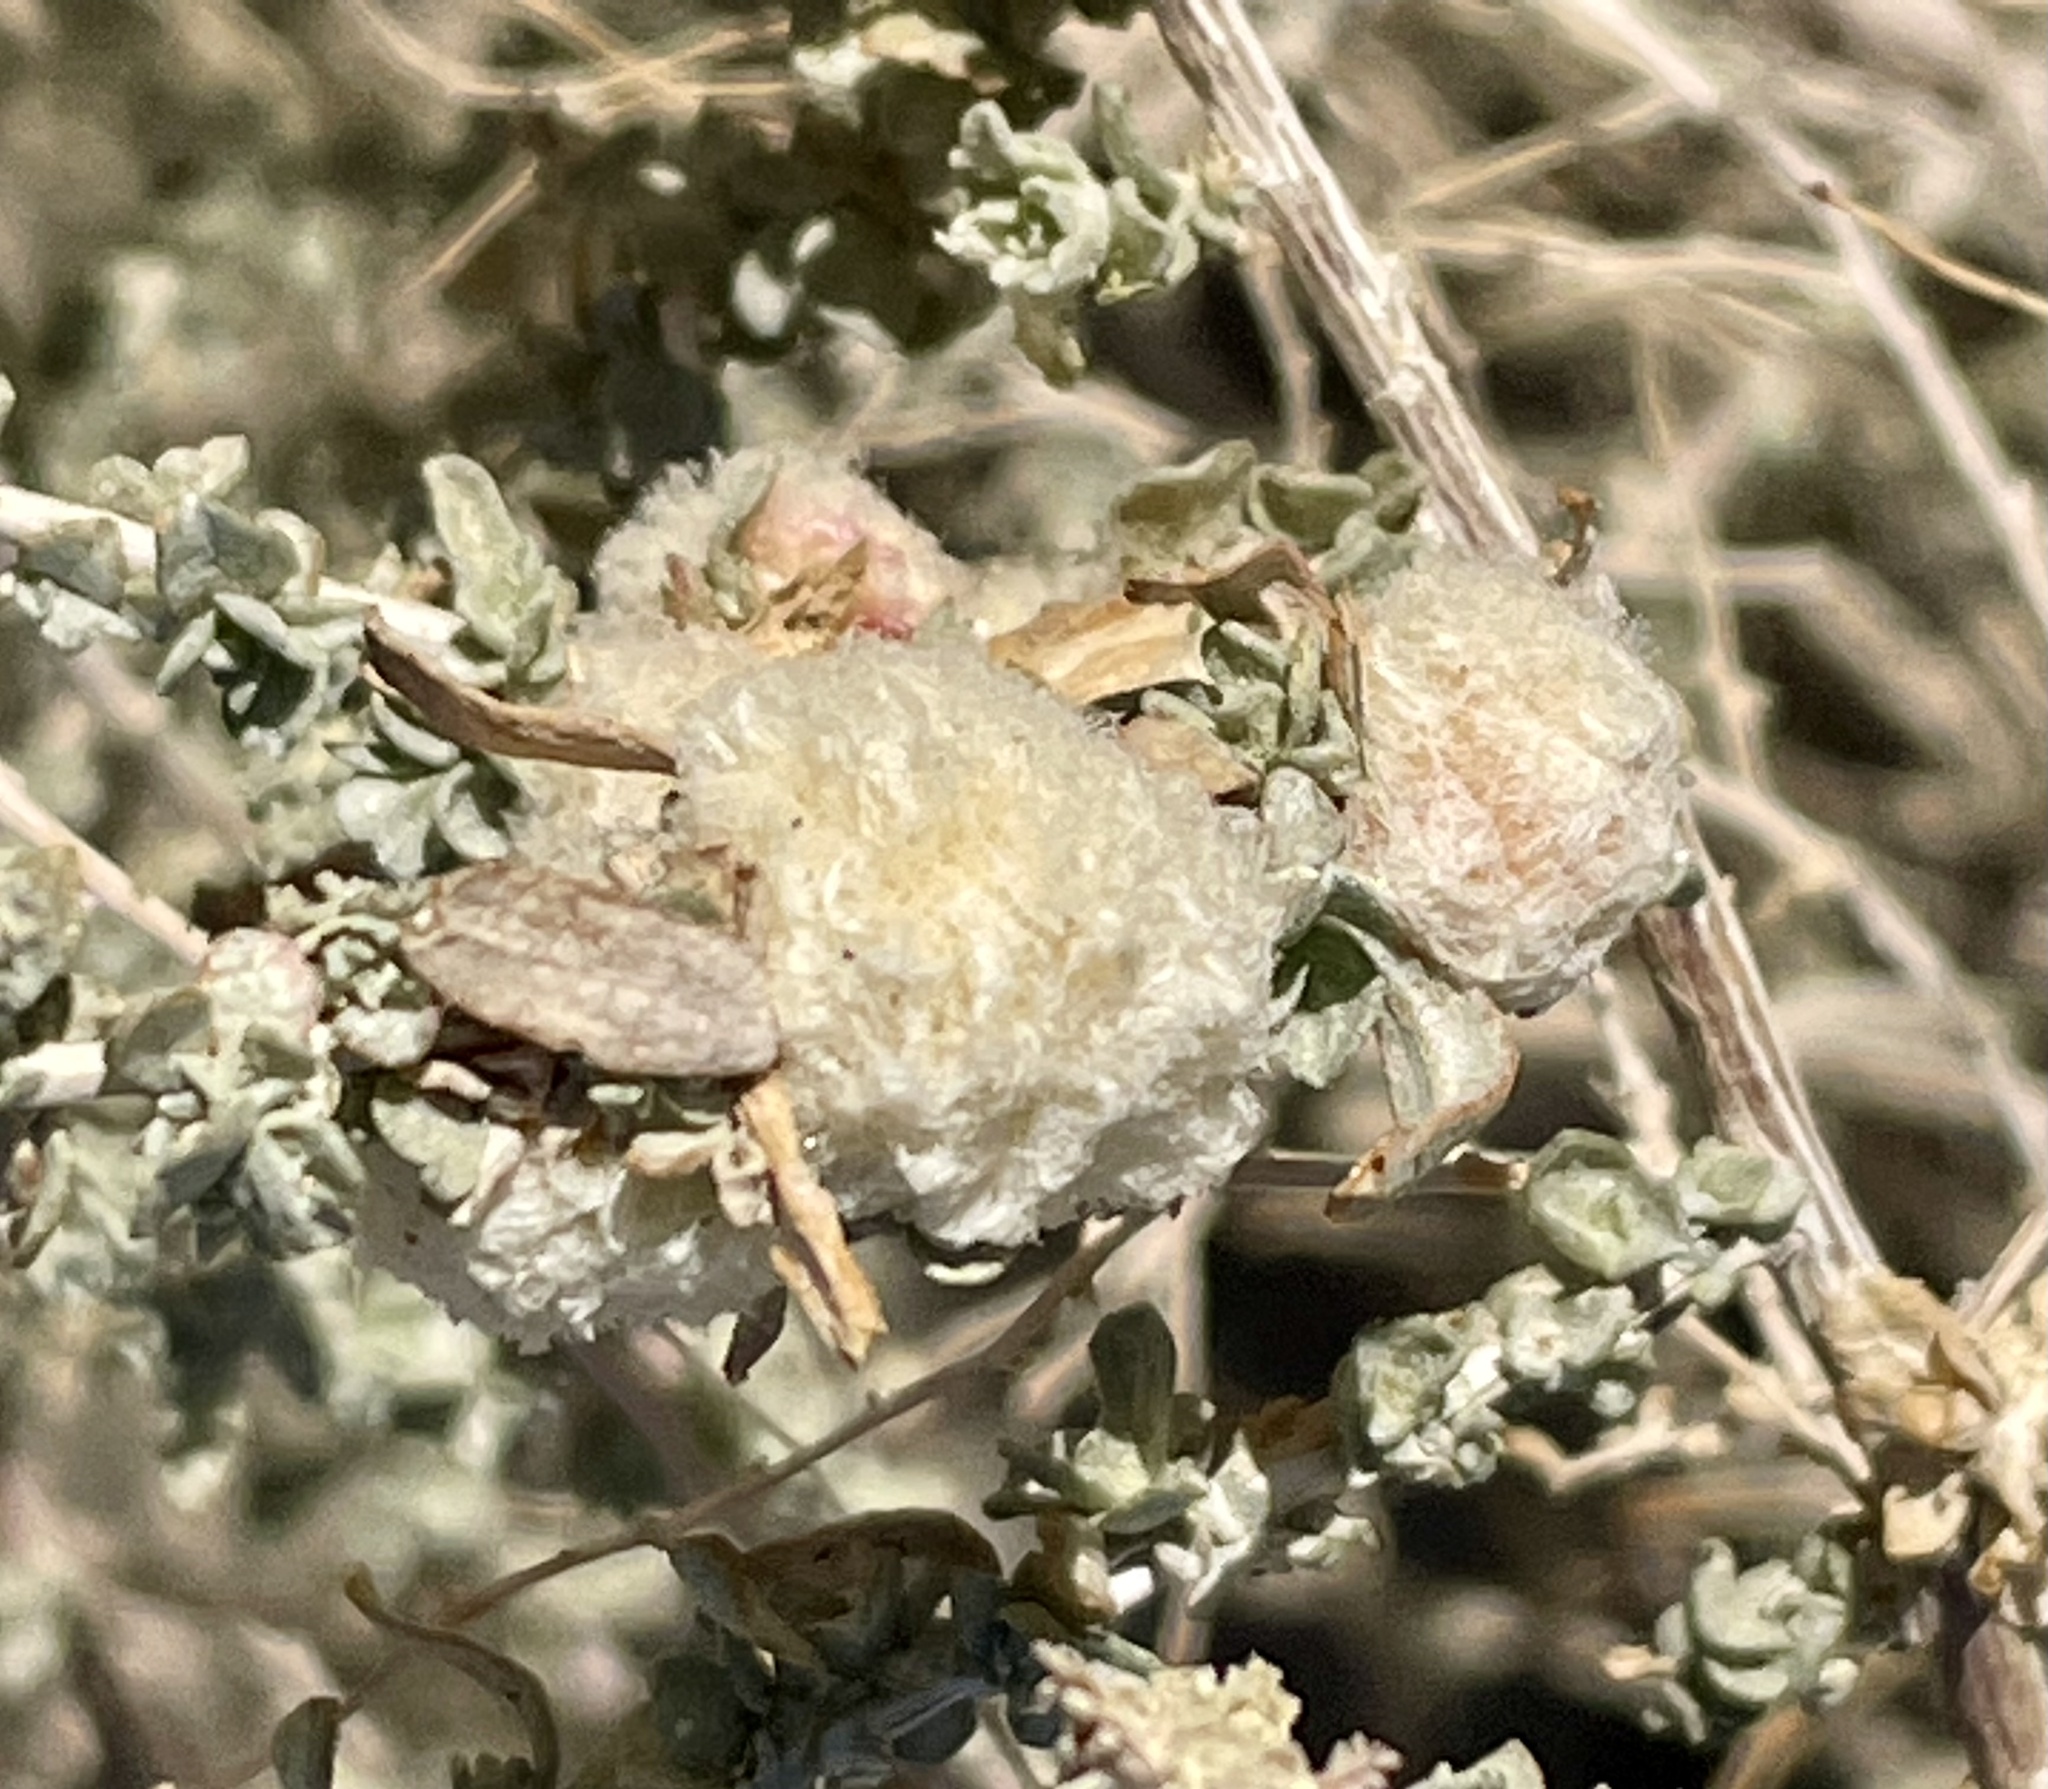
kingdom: Plantae
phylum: Tracheophyta
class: Magnoliopsida
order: Caryophyllales
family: Amaranthaceae
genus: Atriplex
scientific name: Atriplex polycarpa
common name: Desert saltbush
